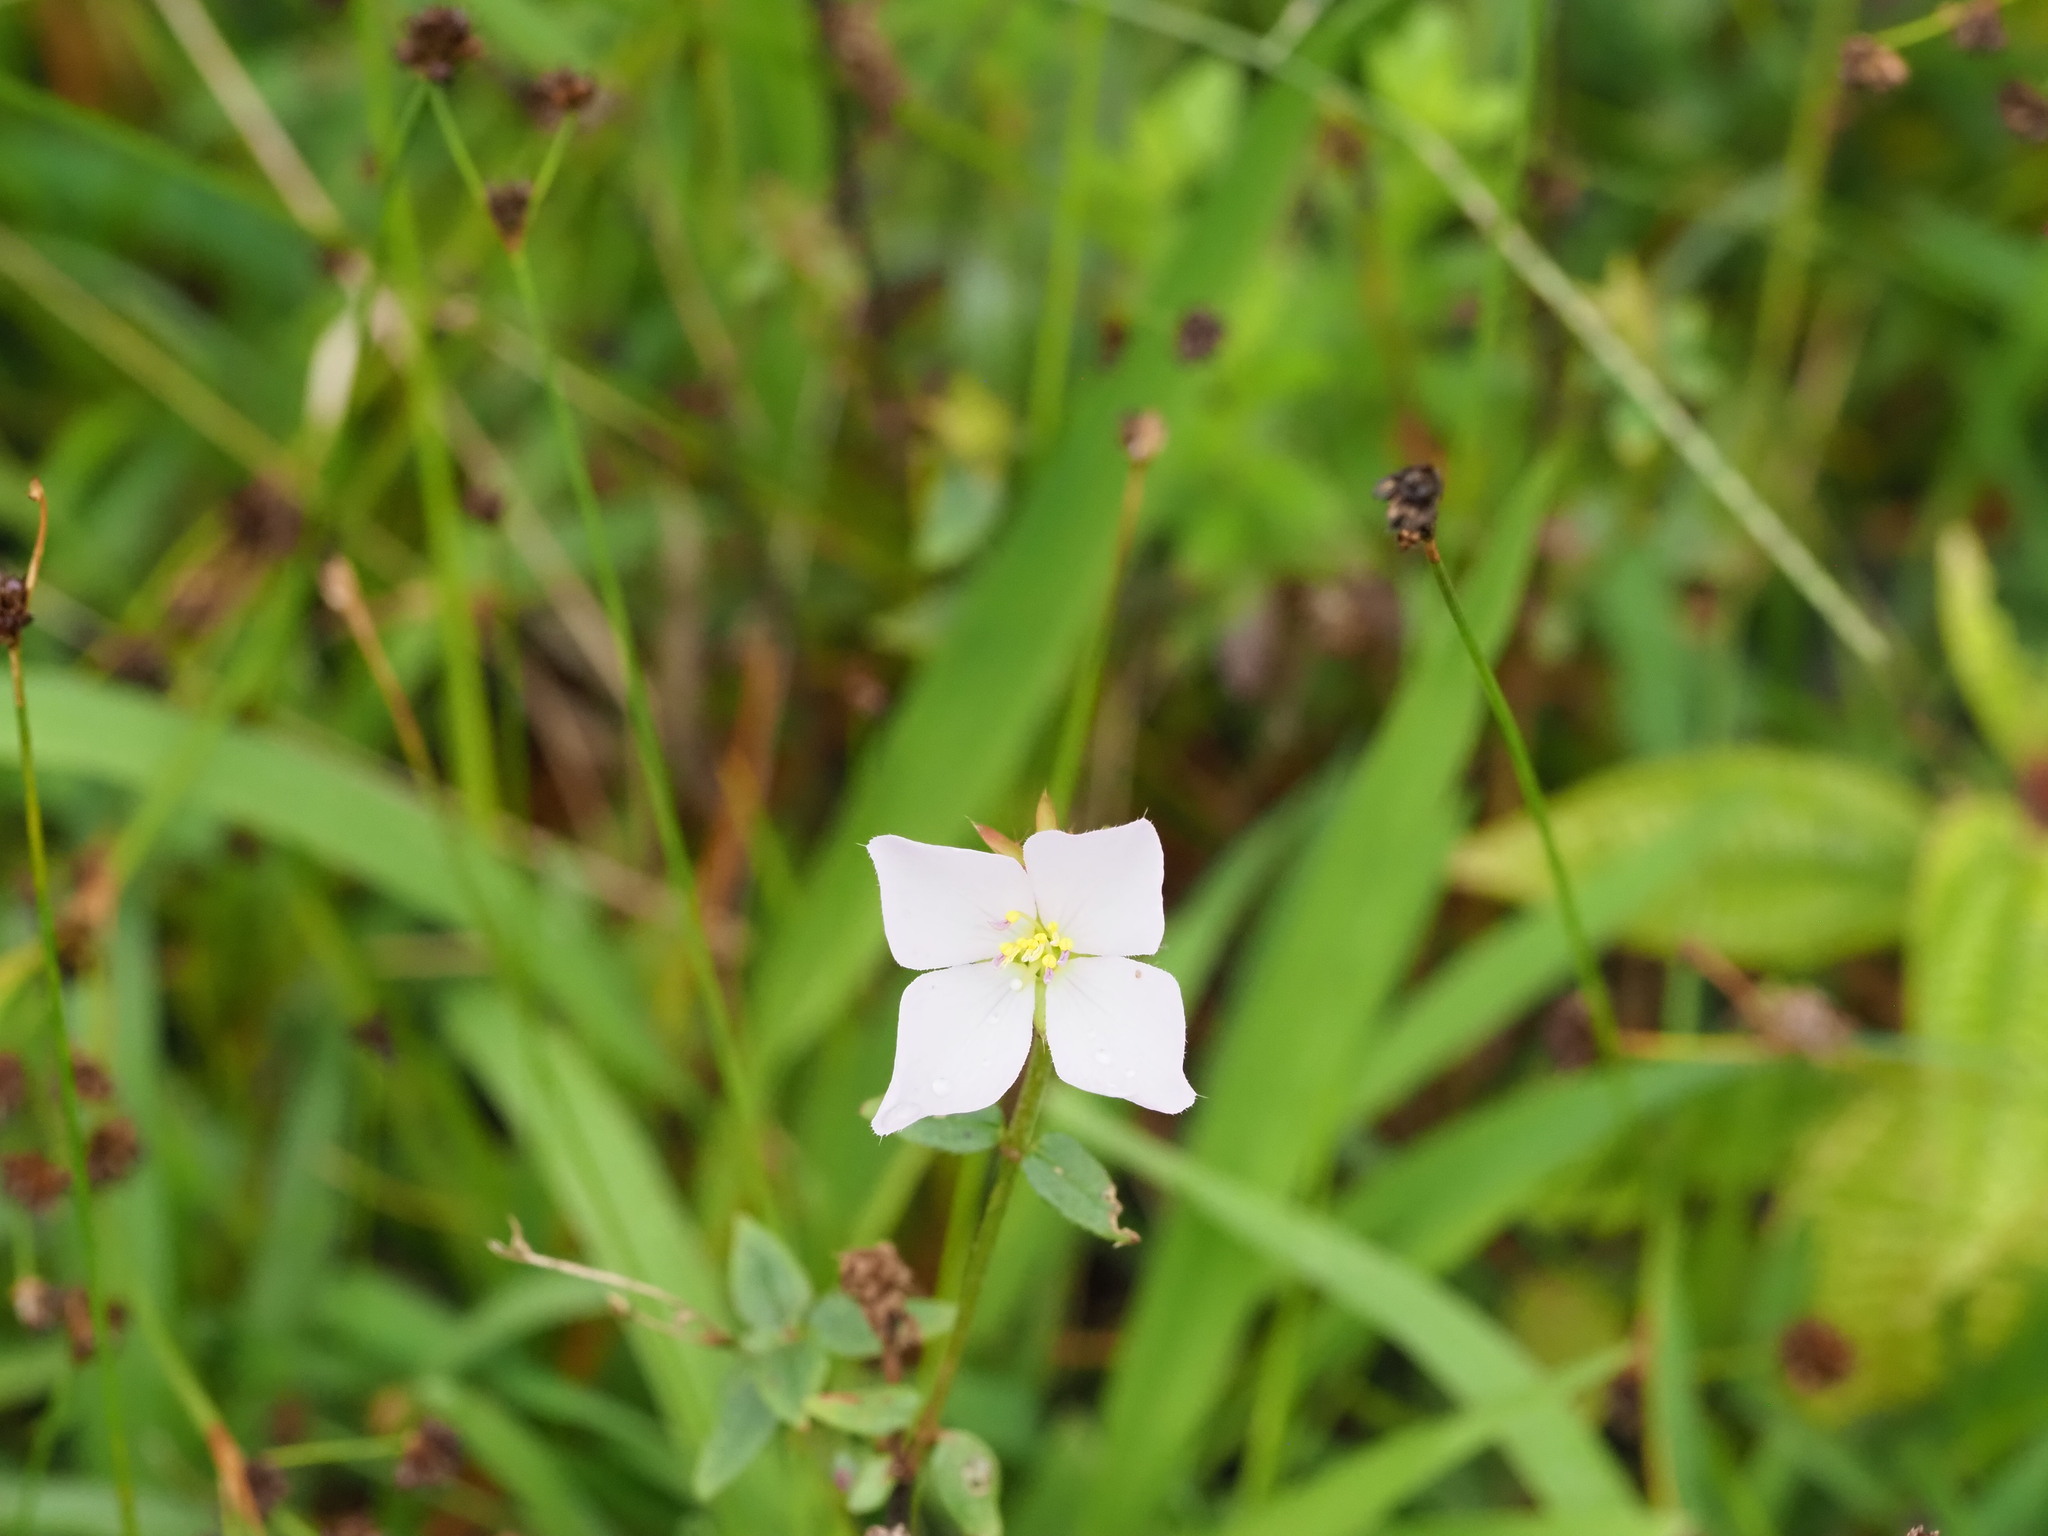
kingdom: Plantae
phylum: Tracheophyta
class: Magnoliopsida
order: Myrtales
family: Melastomataceae
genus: Pterolepis
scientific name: Pterolepis glomerata
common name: False meadowbeauty
